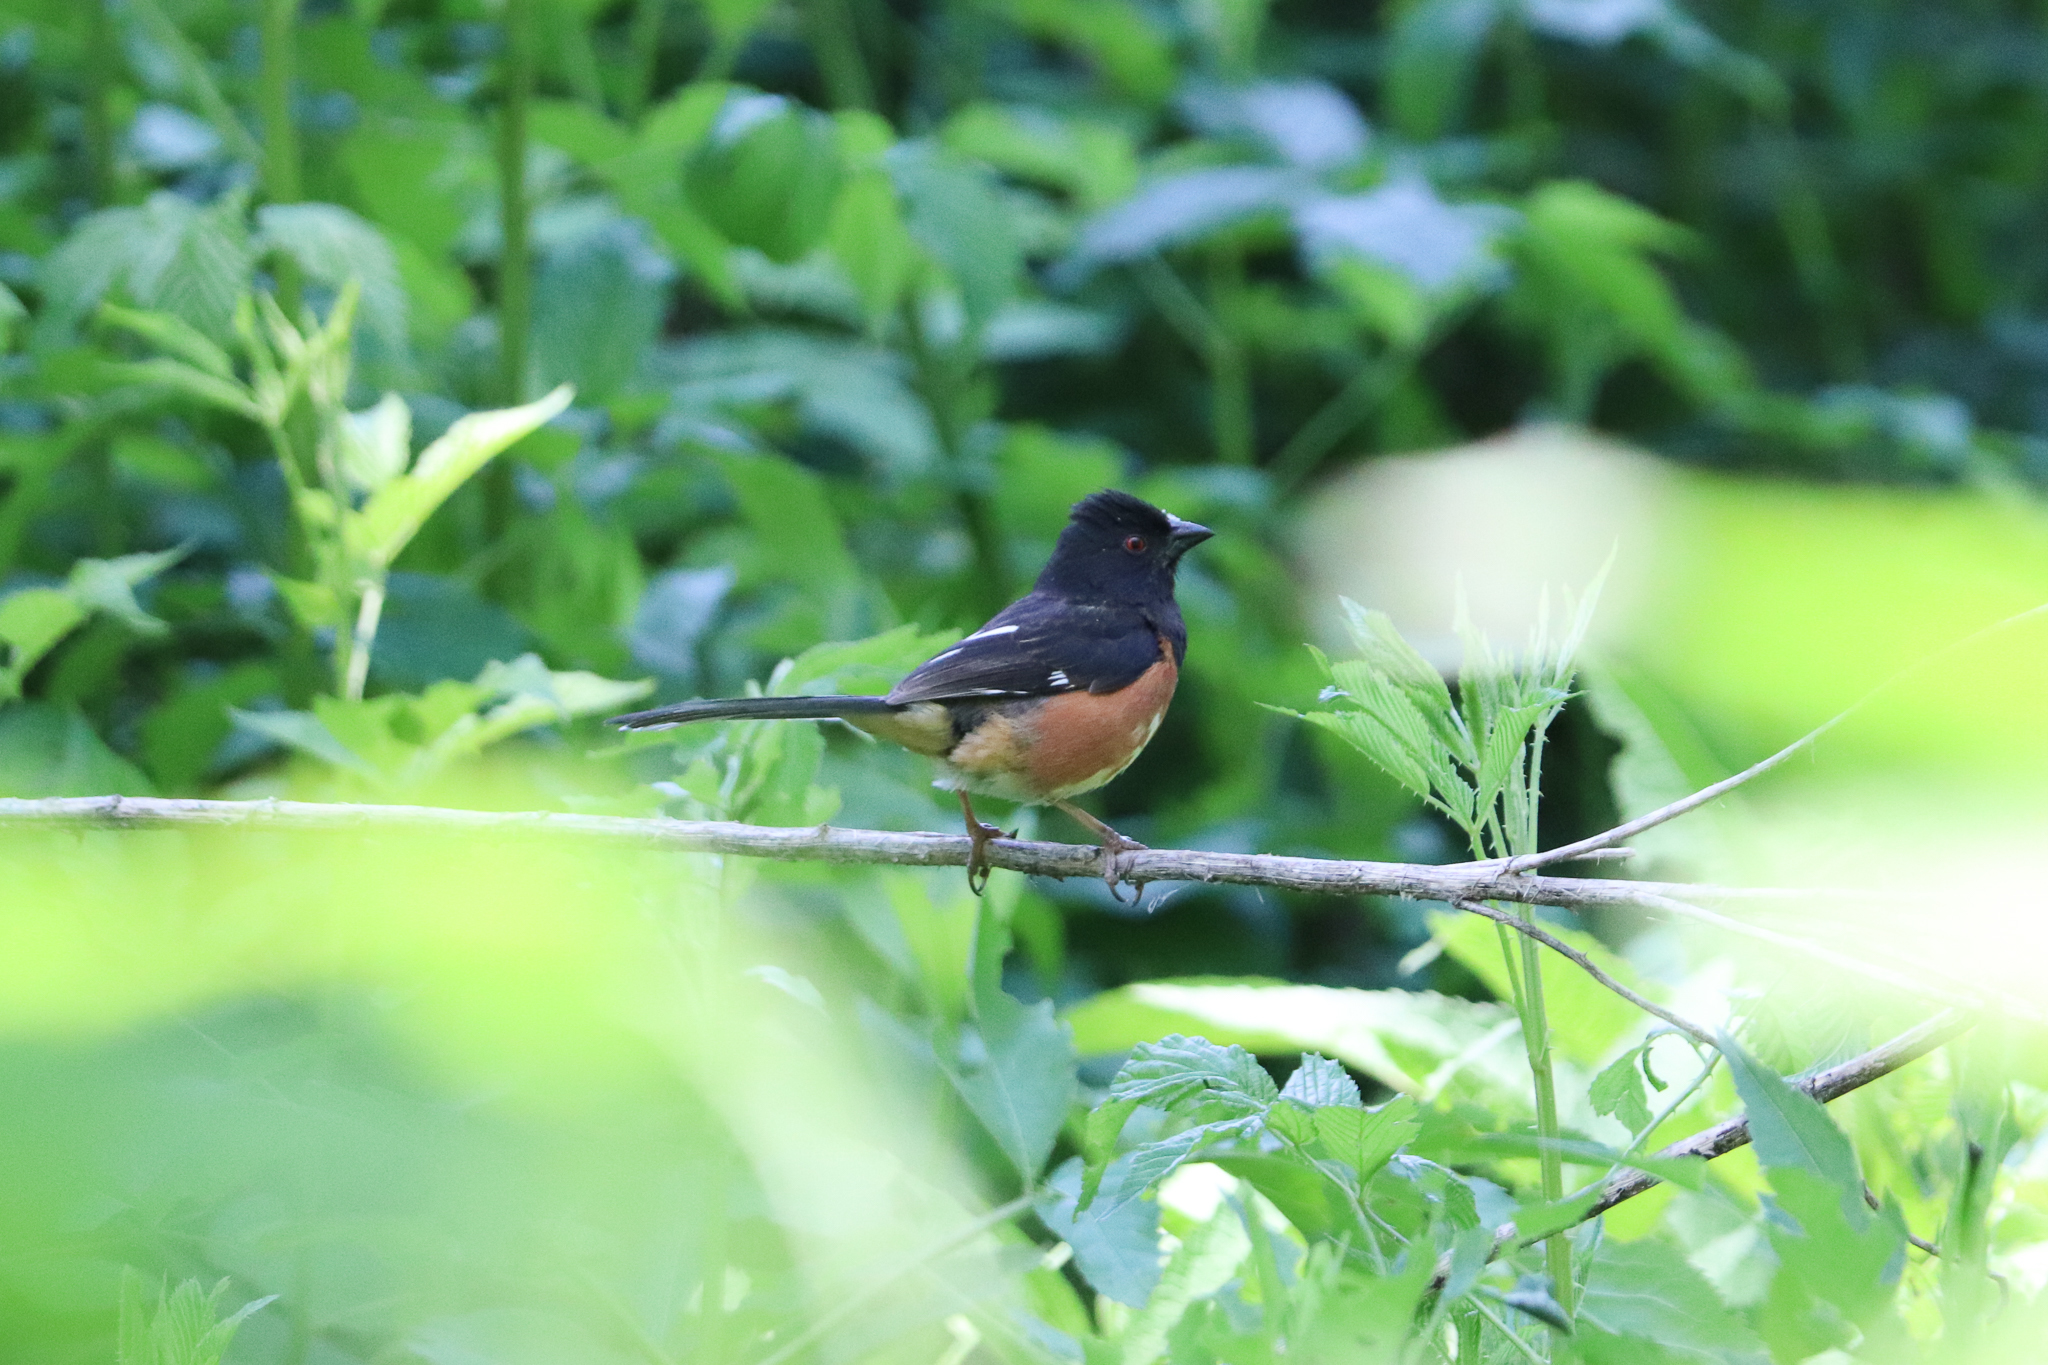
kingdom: Animalia
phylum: Chordata
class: Aves
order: Passeriformes
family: Passerellidae
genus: Pipilo
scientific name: Pipilo erythrophthalmus
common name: Eastern towhee
